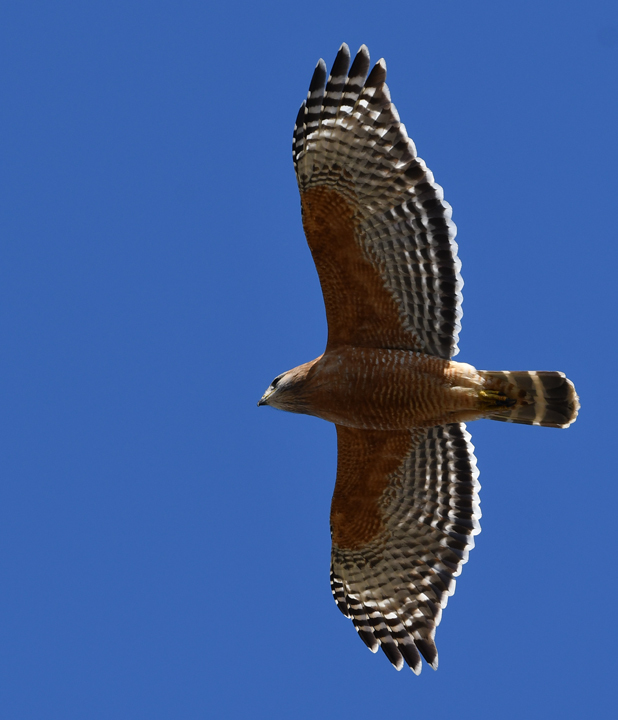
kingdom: Animalia
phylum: Chordata
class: Aves
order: Accipitriformes
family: Accipitridae
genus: Buteo
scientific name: Buteo lineatus
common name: Red-shouldered hawk
